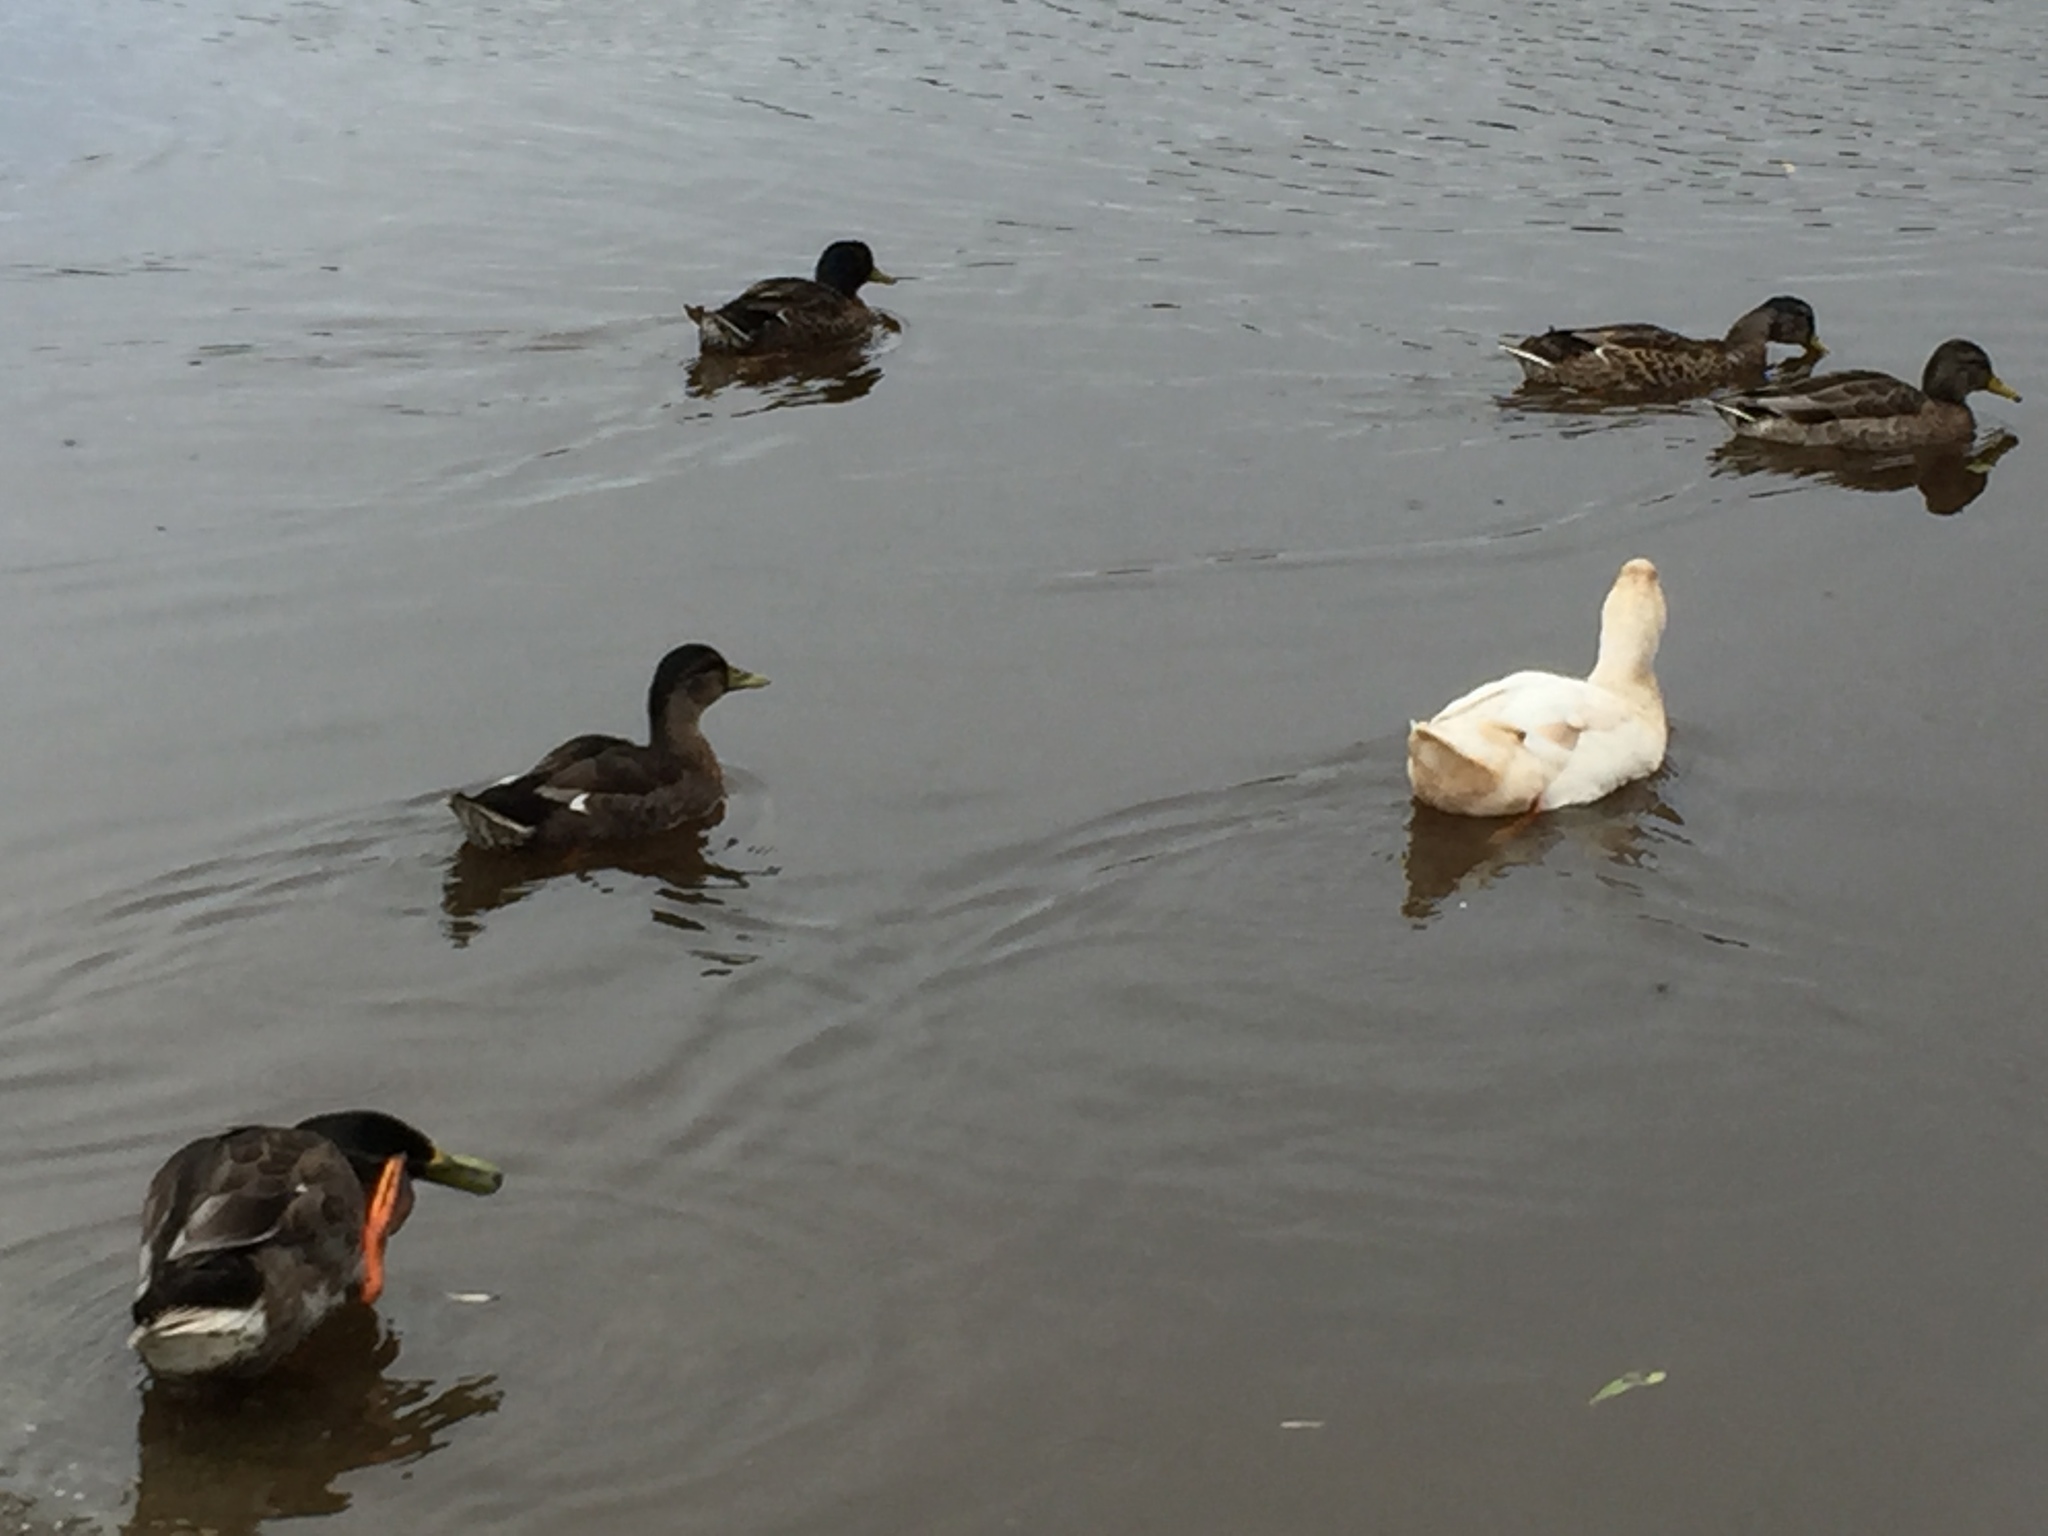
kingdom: Animalia
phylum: Chordata
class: Aves
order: Anseriformes
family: Anatidae
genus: Anas
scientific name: Anas platyrhynchos
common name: Mallard
